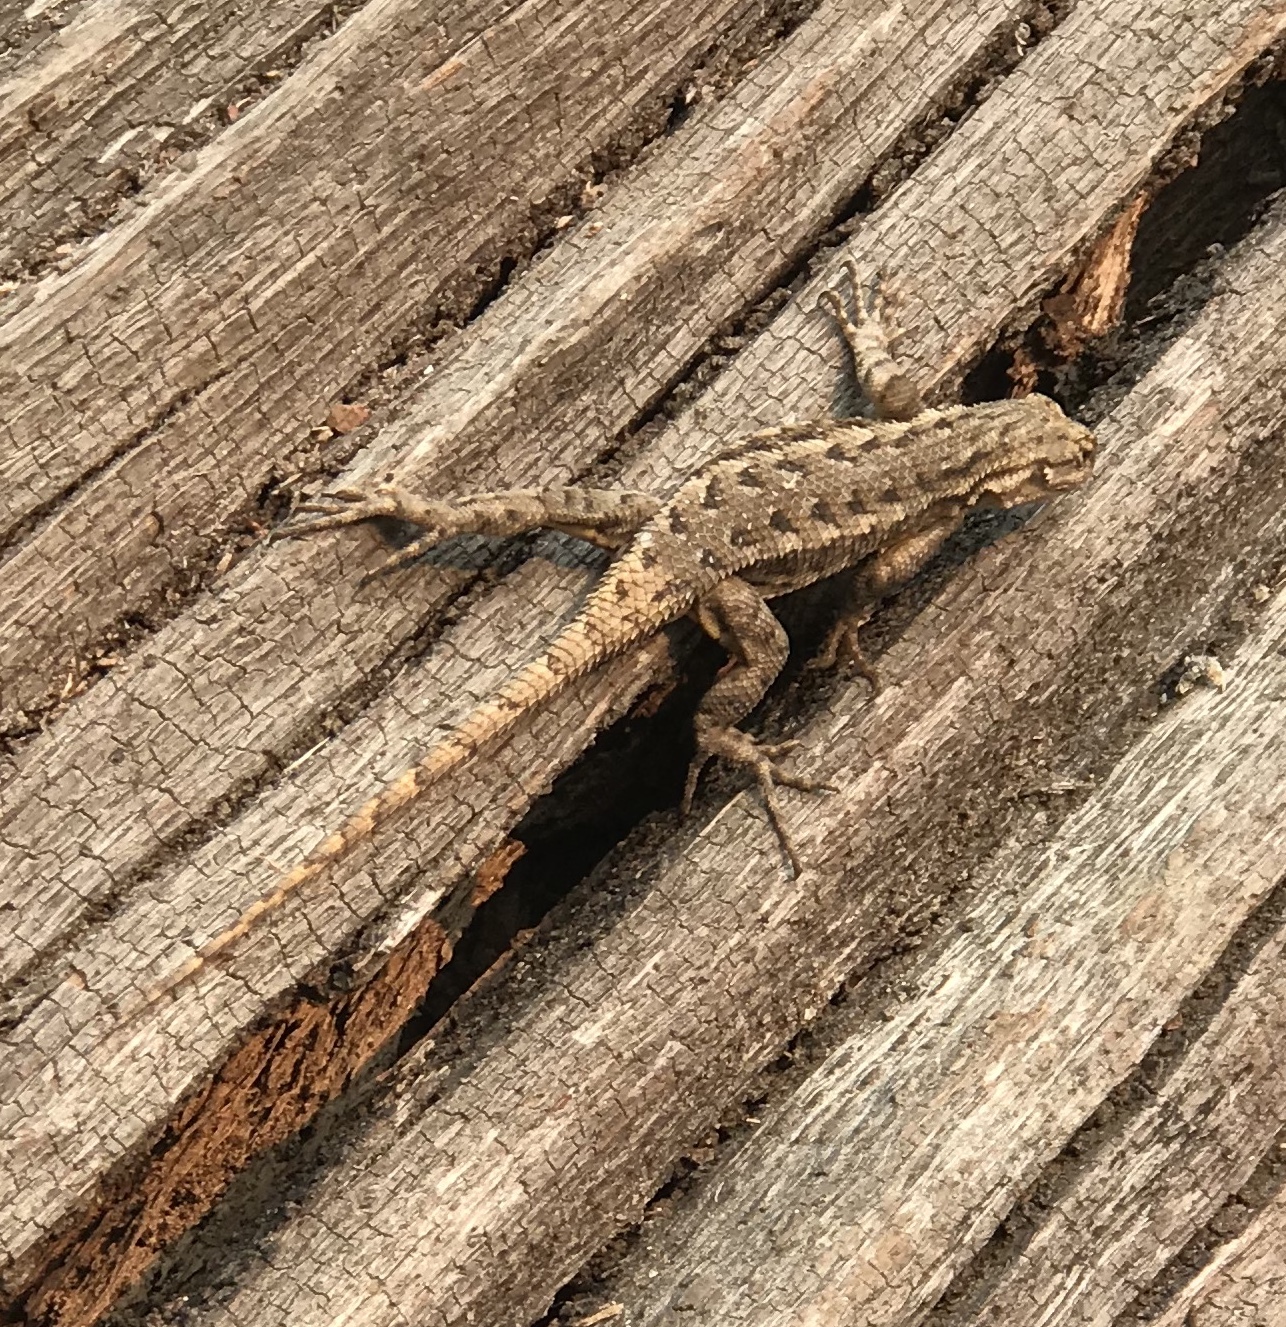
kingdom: Animalia
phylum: Chordata
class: Squamata
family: Phrynosomatidae
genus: Sceloporus
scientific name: Sceloporus occidentalis
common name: Western fence lizard
